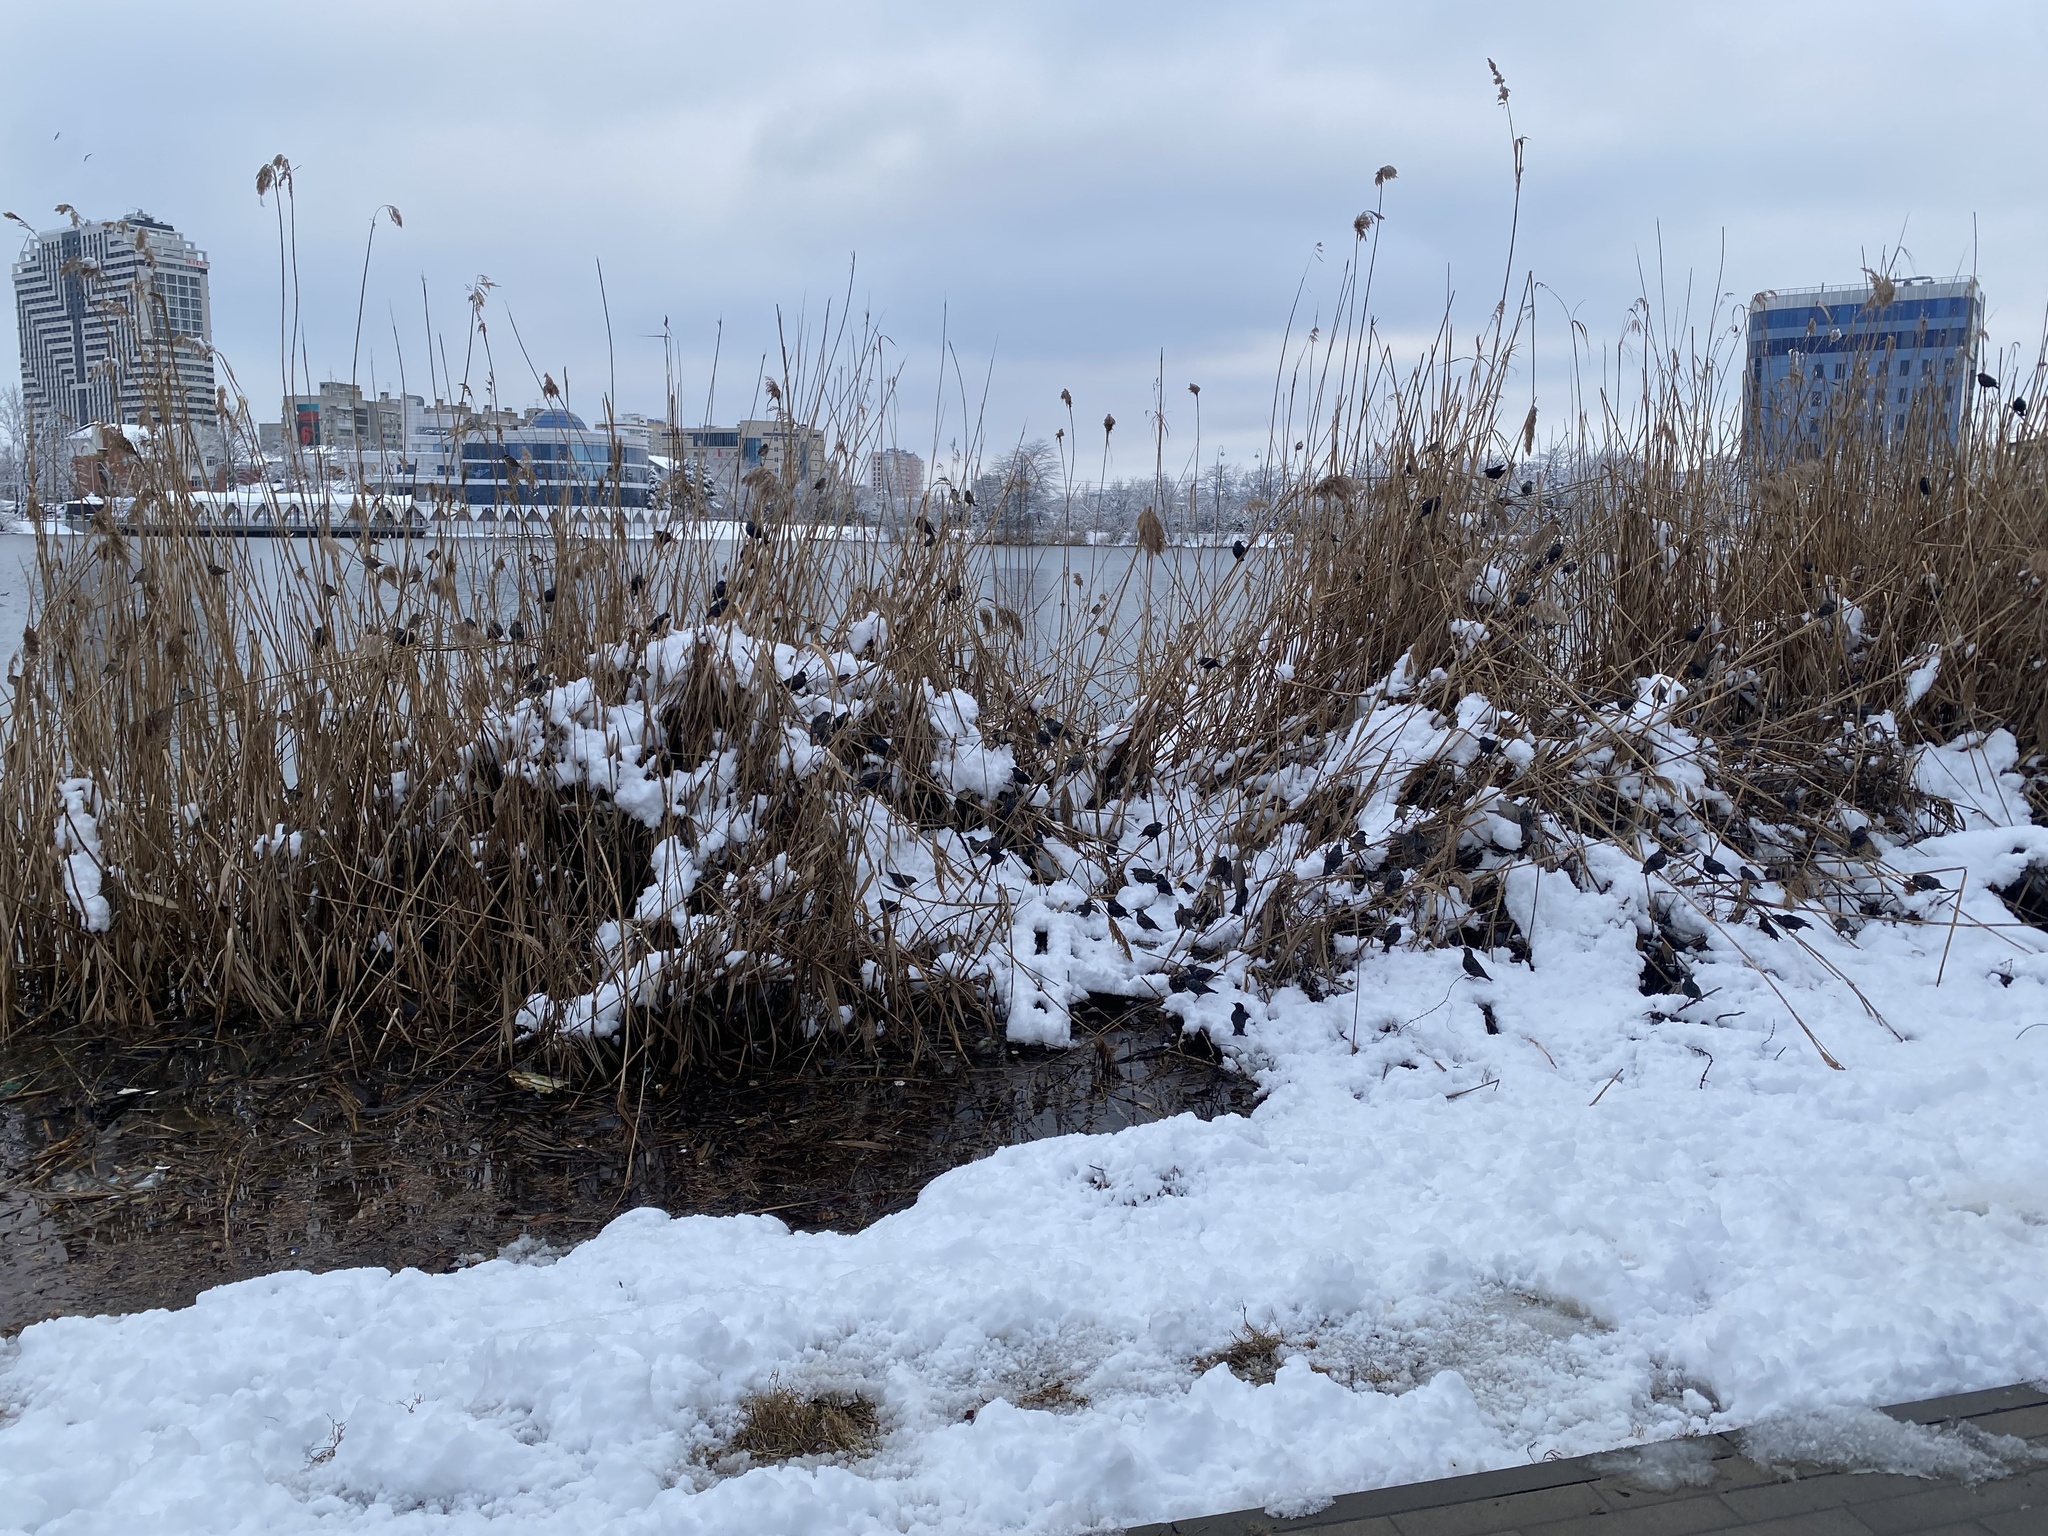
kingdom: Animalia
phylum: Chordata
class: Aves
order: Passeriformes
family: Sturnidae
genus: Sturnus
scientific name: Sturnus vulgaris
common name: Common starling
